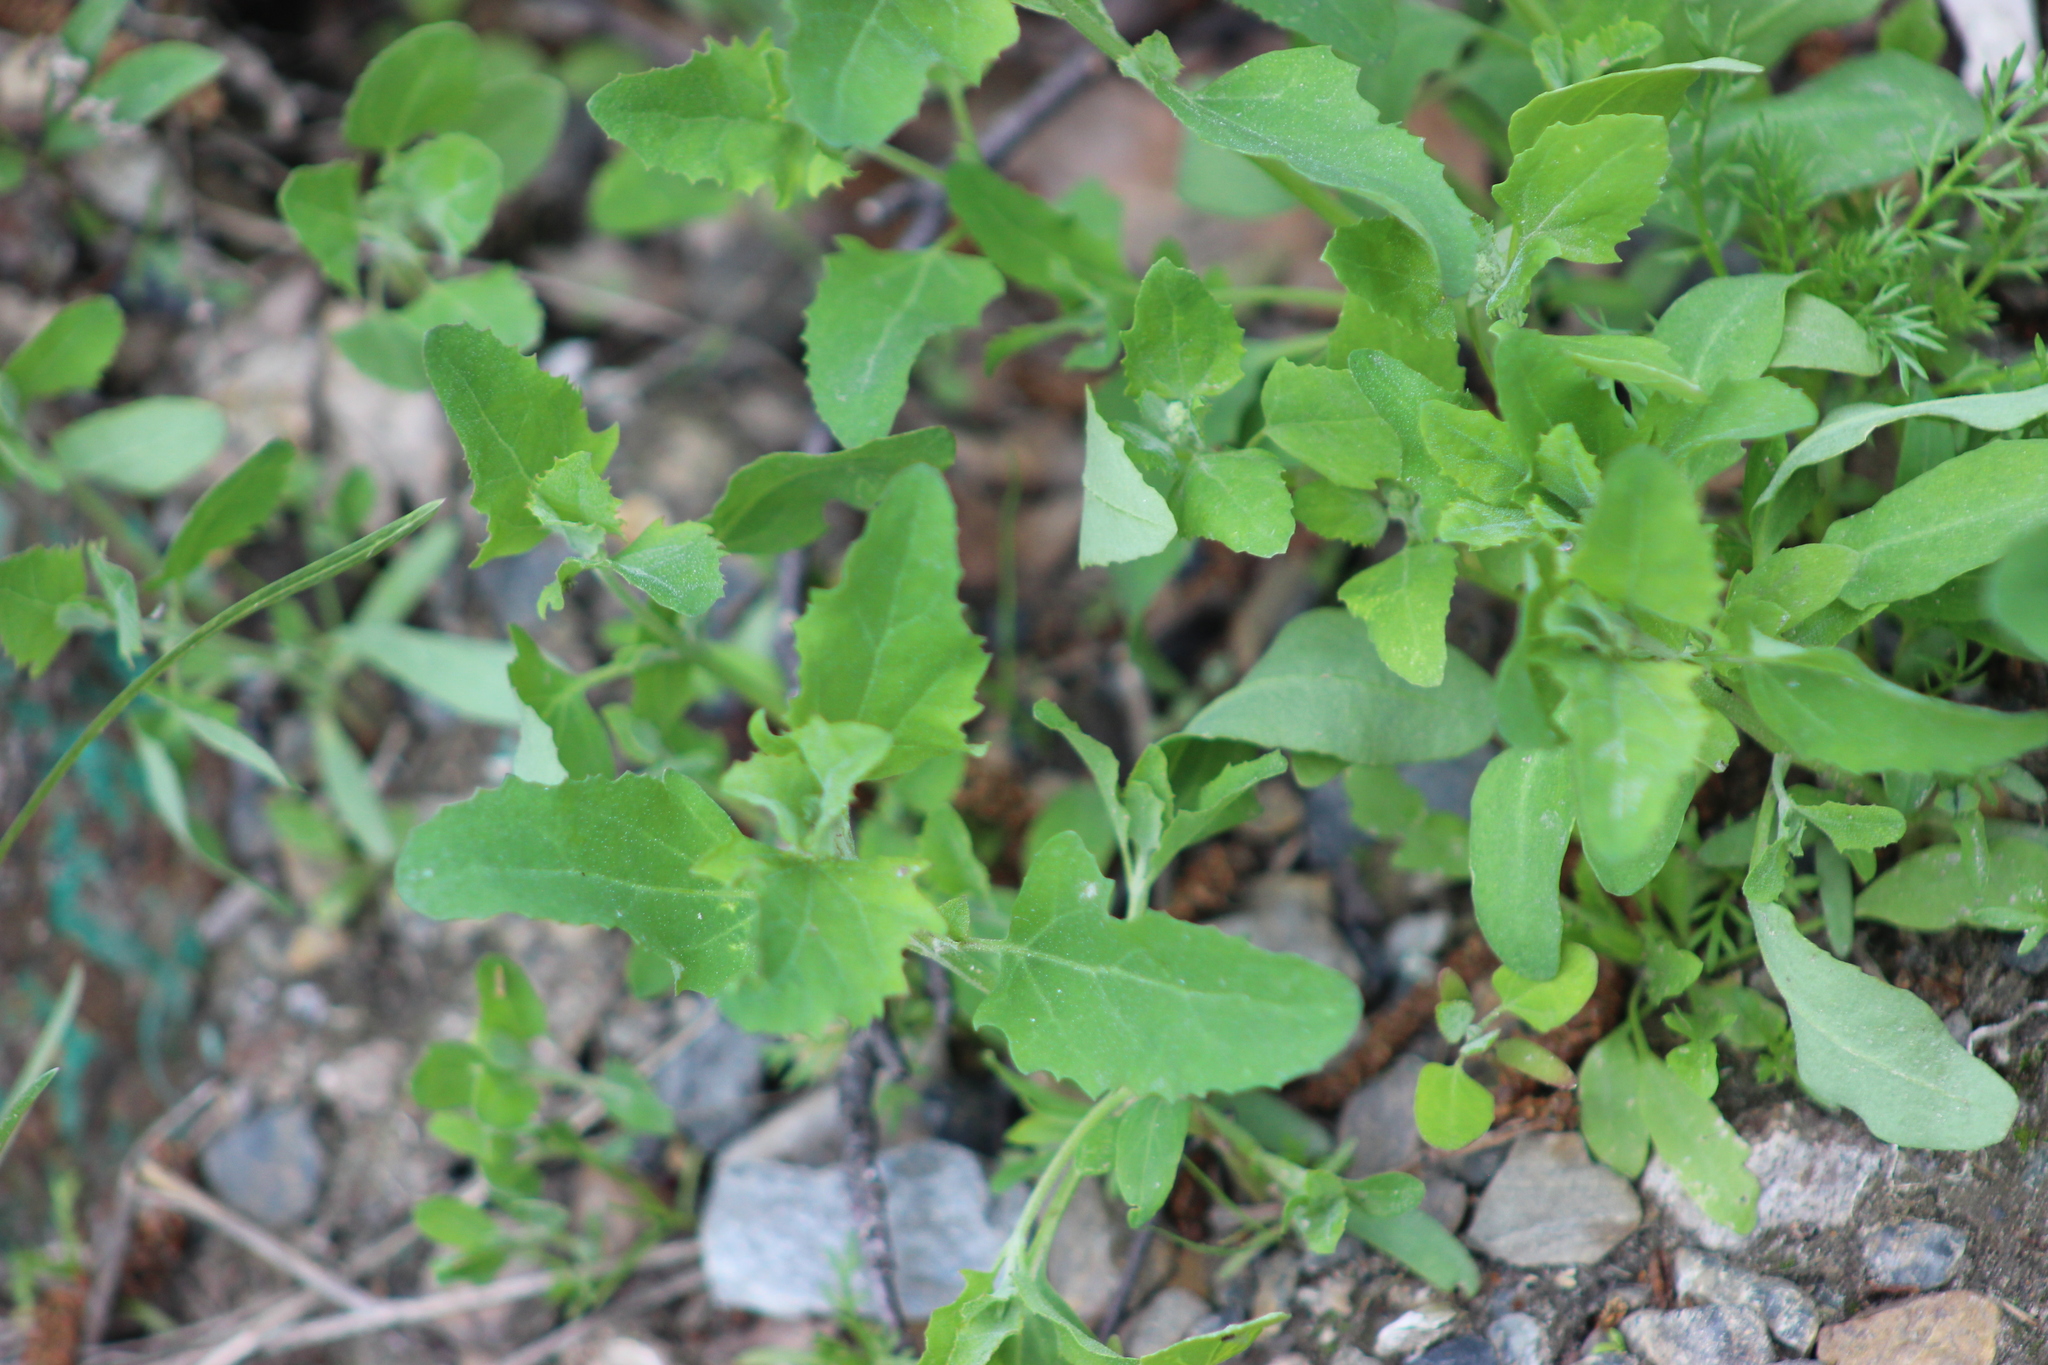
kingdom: Plantae
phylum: Tracheophyta
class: Magnoliopsida
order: Caryophyllales
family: Amaranthaceae
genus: Chenopodium
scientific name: Chenopodium album
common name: Fat-hen
